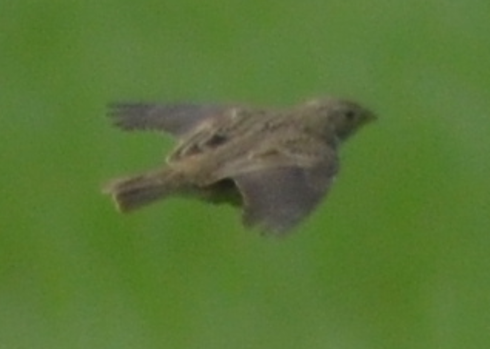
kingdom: Animalia
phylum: Chordata
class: Aves
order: Passeriformes
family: Emberizidae
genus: Emberiza
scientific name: Emberiza calandra
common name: Corn bunting
